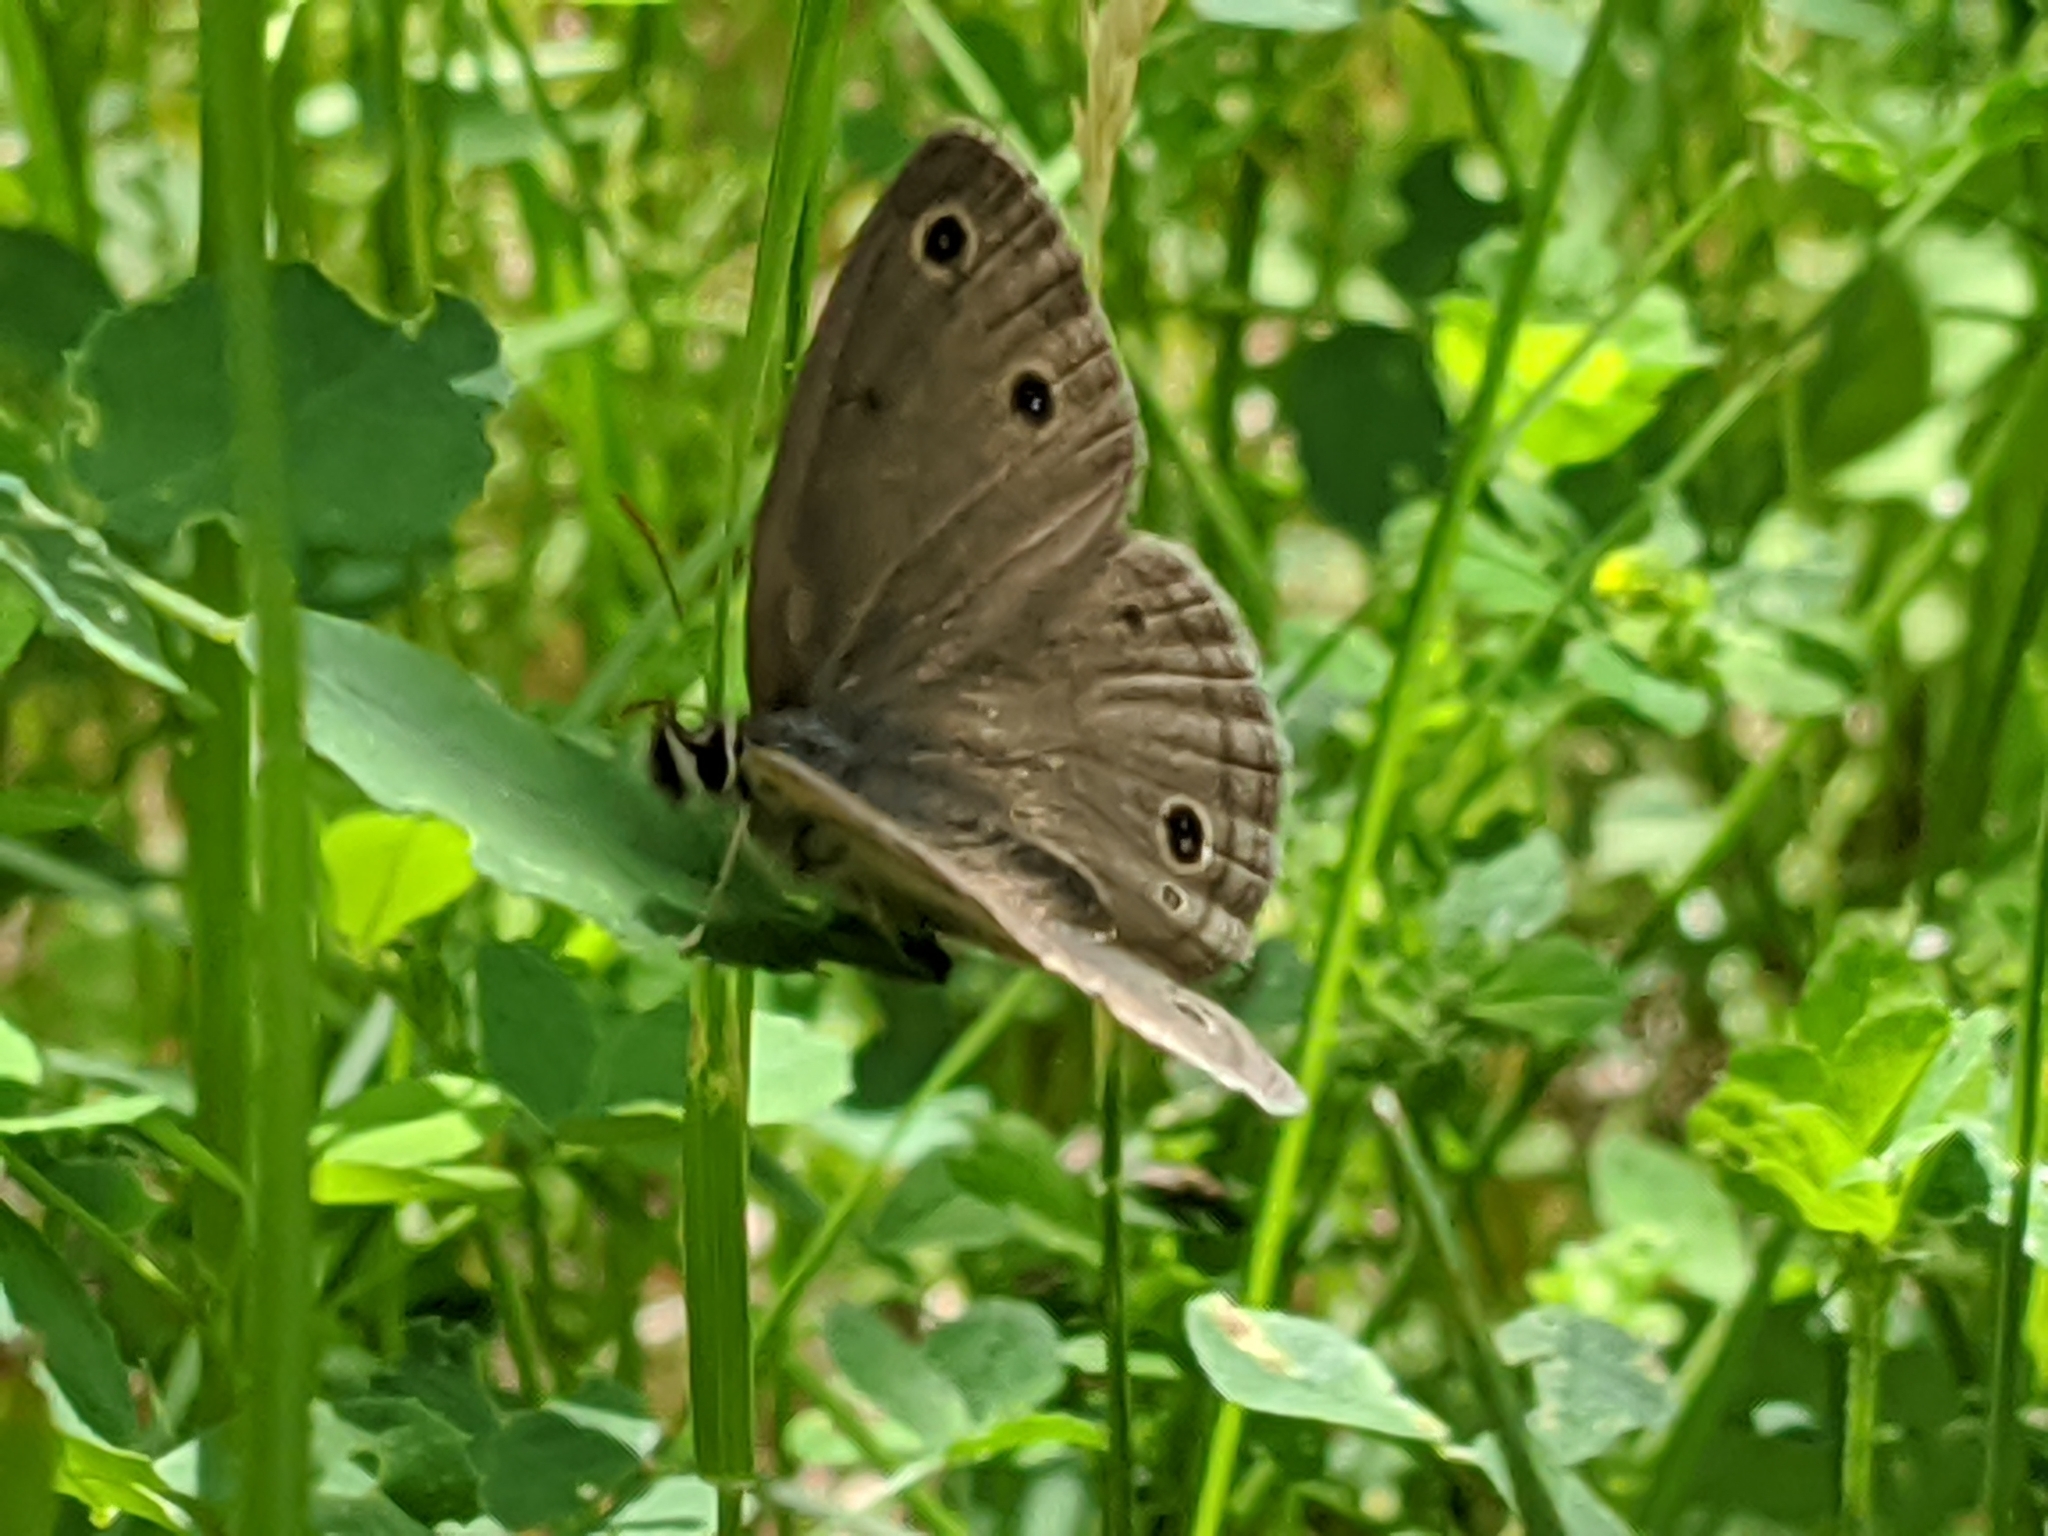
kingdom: Animalia
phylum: Arthropoda
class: Insecta
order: Lepidoptera
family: Nymphalidae
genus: Euptychia
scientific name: Euptychia cymela
